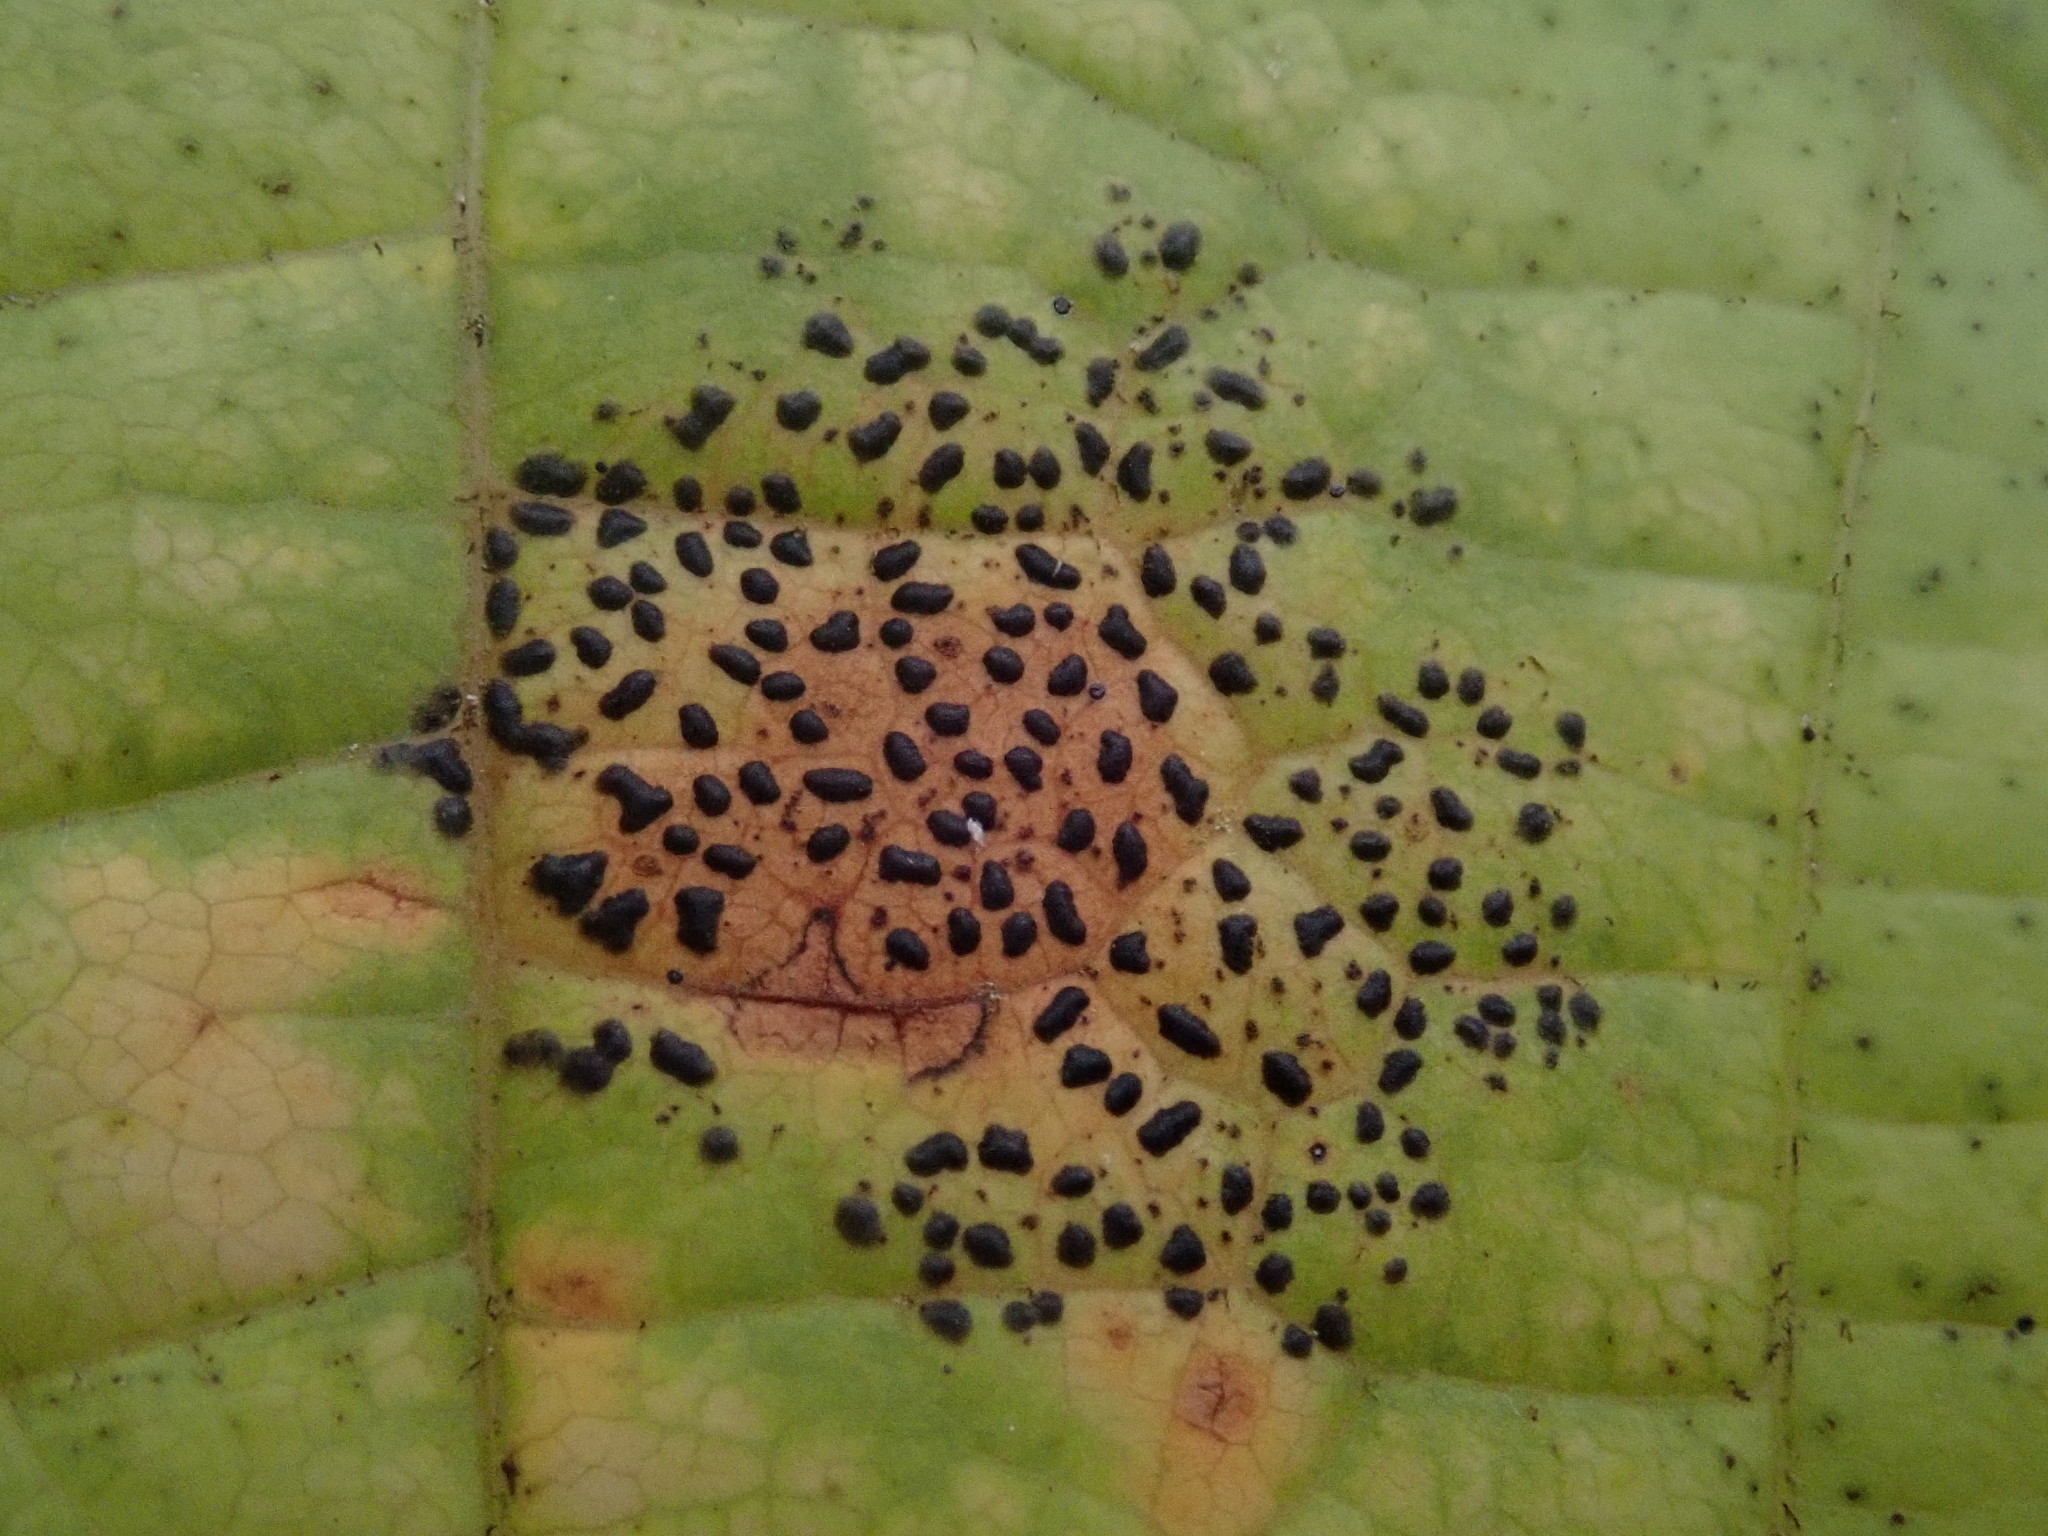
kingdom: Fungi
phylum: Ascomycota
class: Leotiomycetes
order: Rhytismatales
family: Rhytismataceae
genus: Rhytisma
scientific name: Rhytisma punctatum
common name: Speckled tar spot
